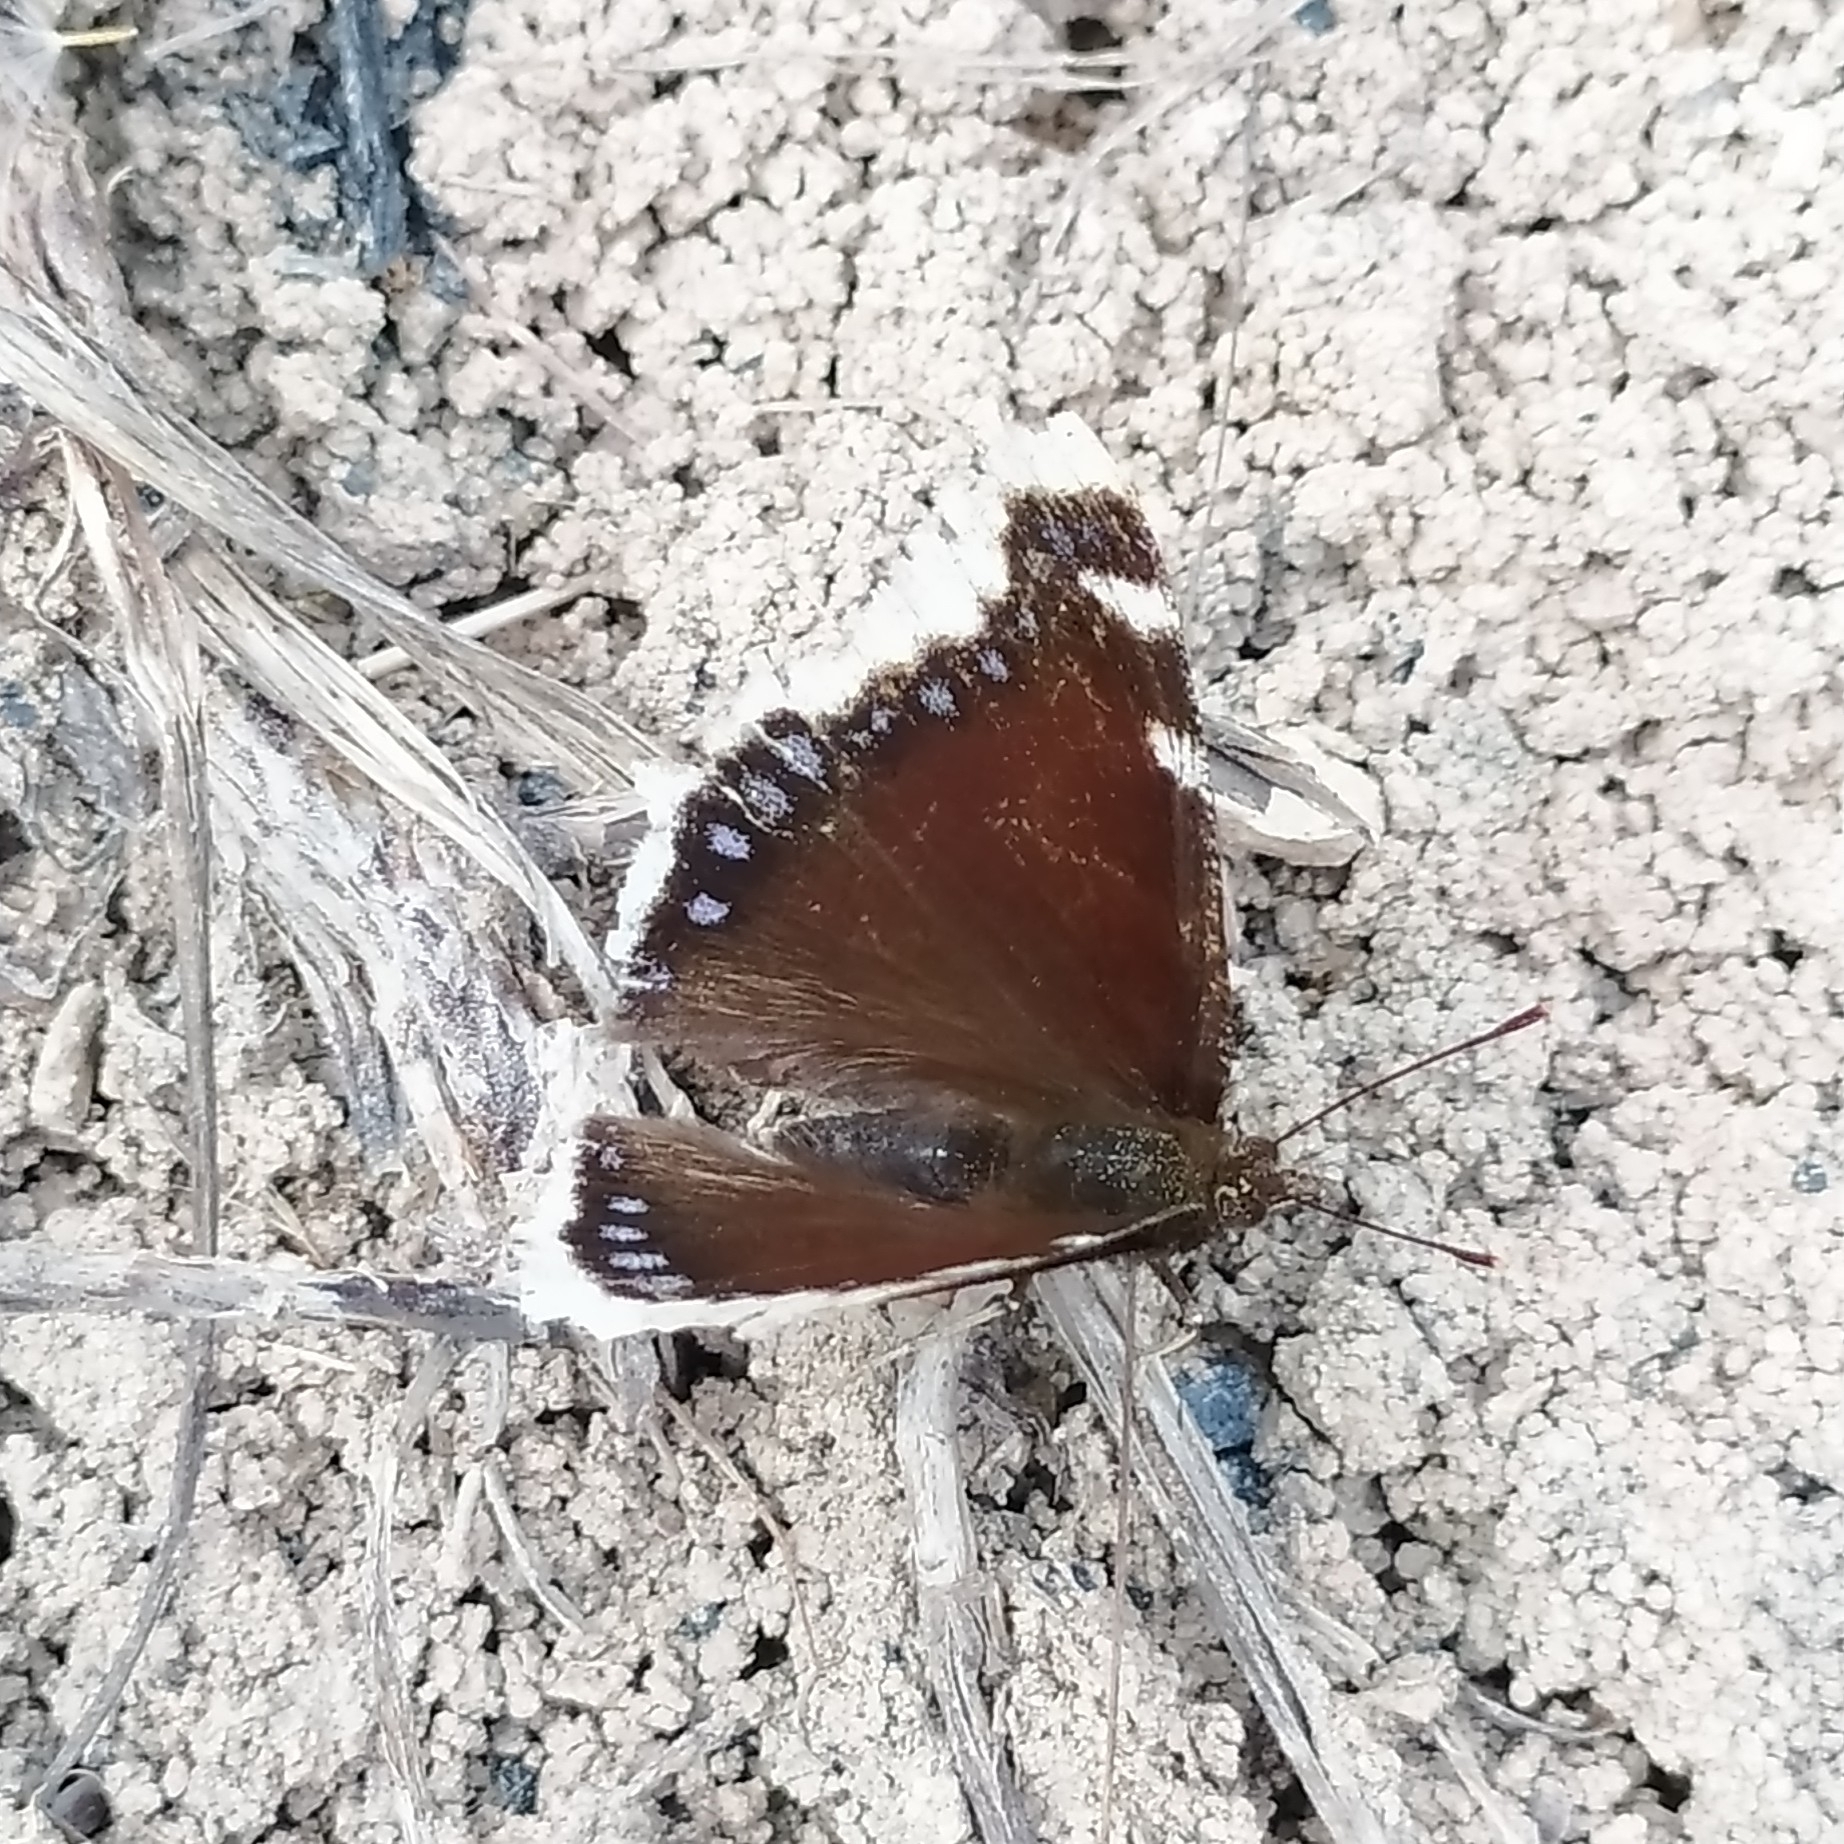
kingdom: Animalia
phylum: Arthropoda
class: Insecta
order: Lepidoptera
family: Nymphalidae
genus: Nymphalis
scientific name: Nymphalis antiopa
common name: Camberwell beauty
